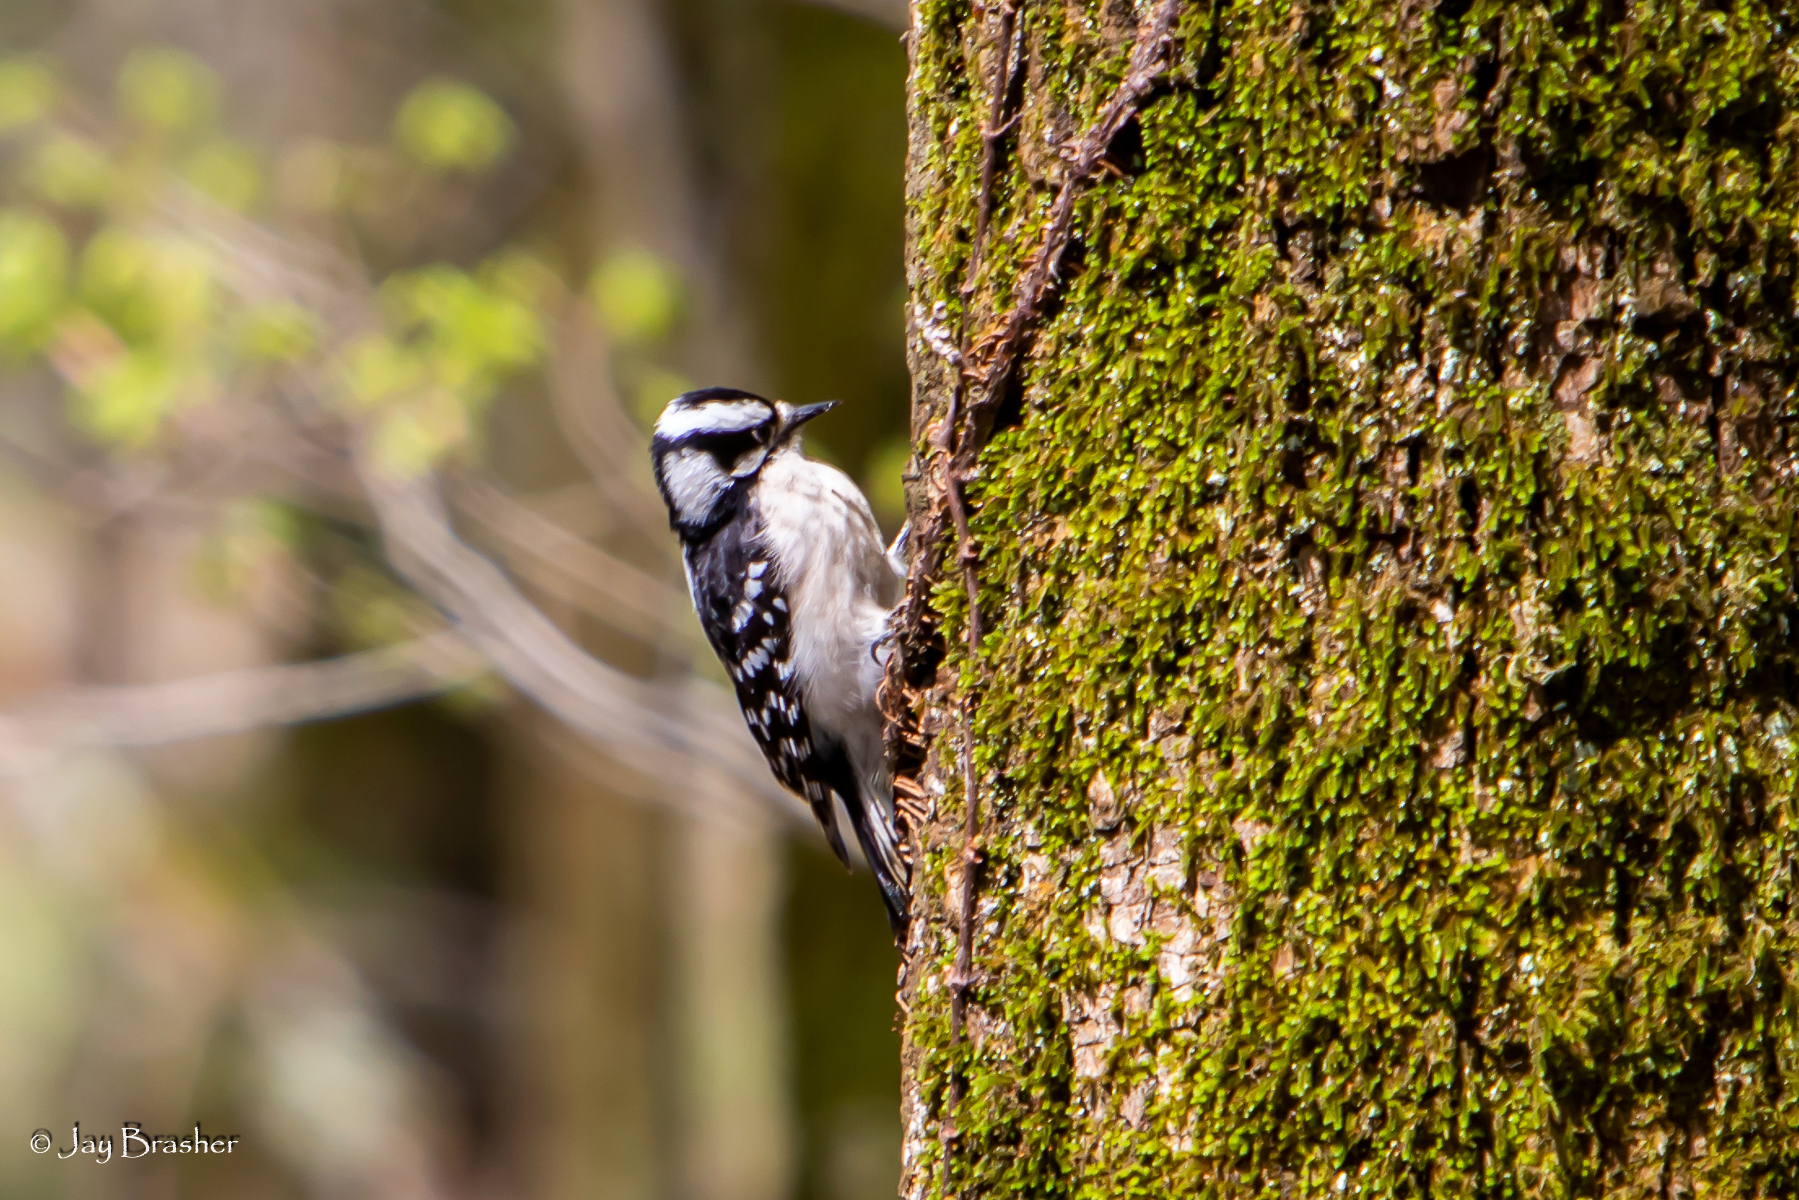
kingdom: Animalia
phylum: Chordata
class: Aves
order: Piciformes
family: Picidae
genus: Dryobates
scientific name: Dryobates pubescens
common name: Downy woodpecker
